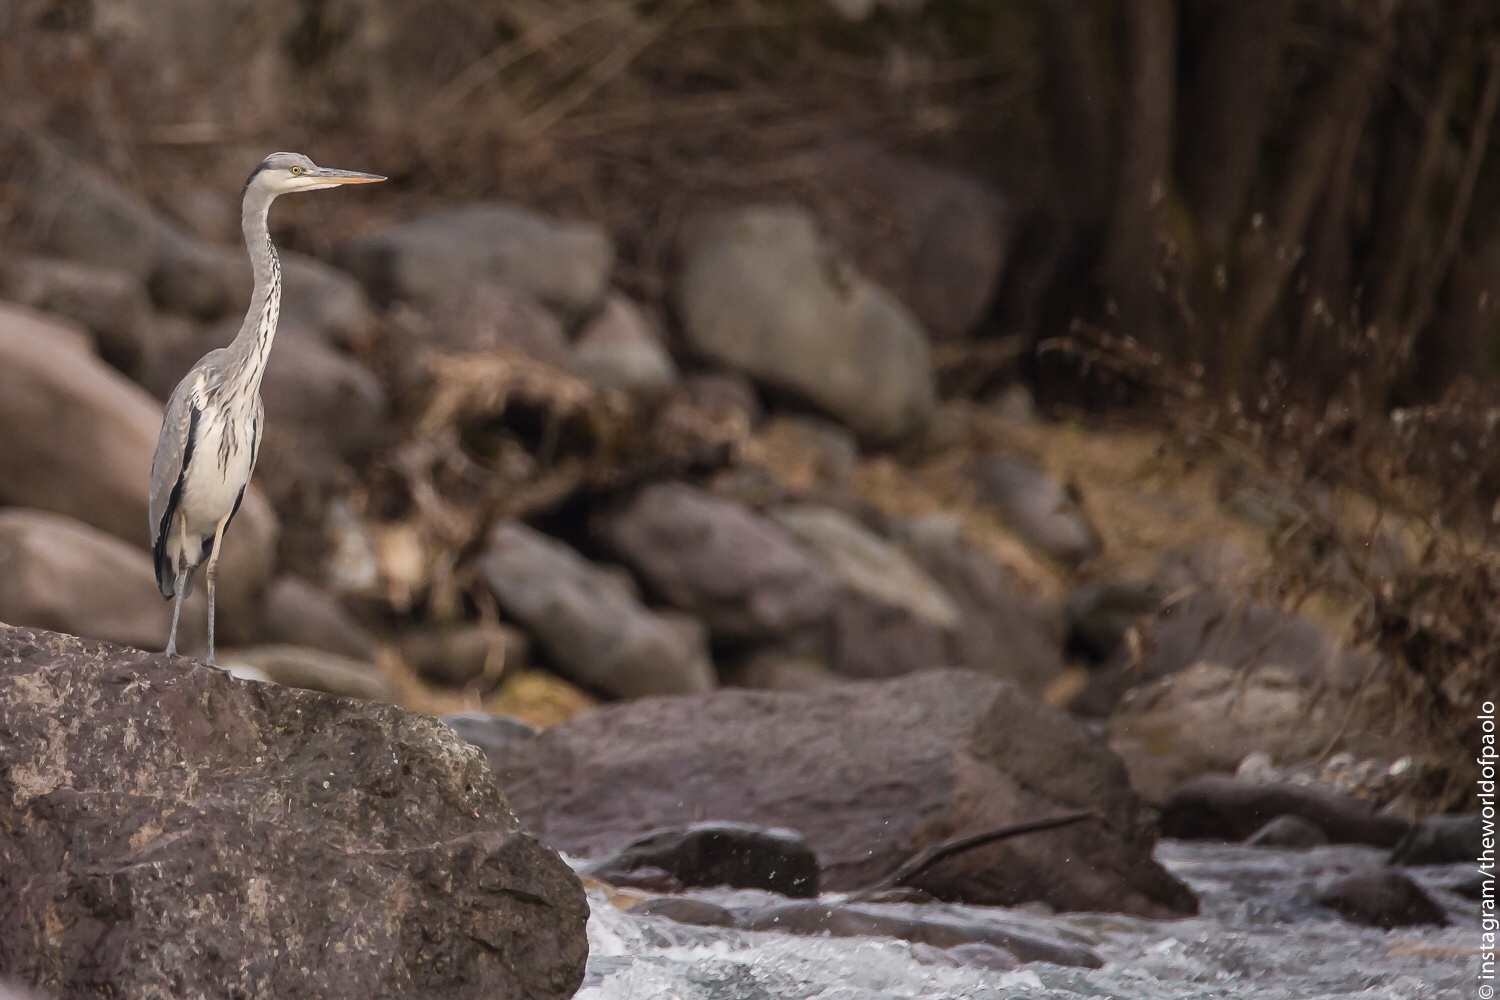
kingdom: Animalia
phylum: Chordata
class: Aves
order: Pelecaniformes
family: Ardeidae
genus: Ardea
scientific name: Ardea cinerea
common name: Grey heron
